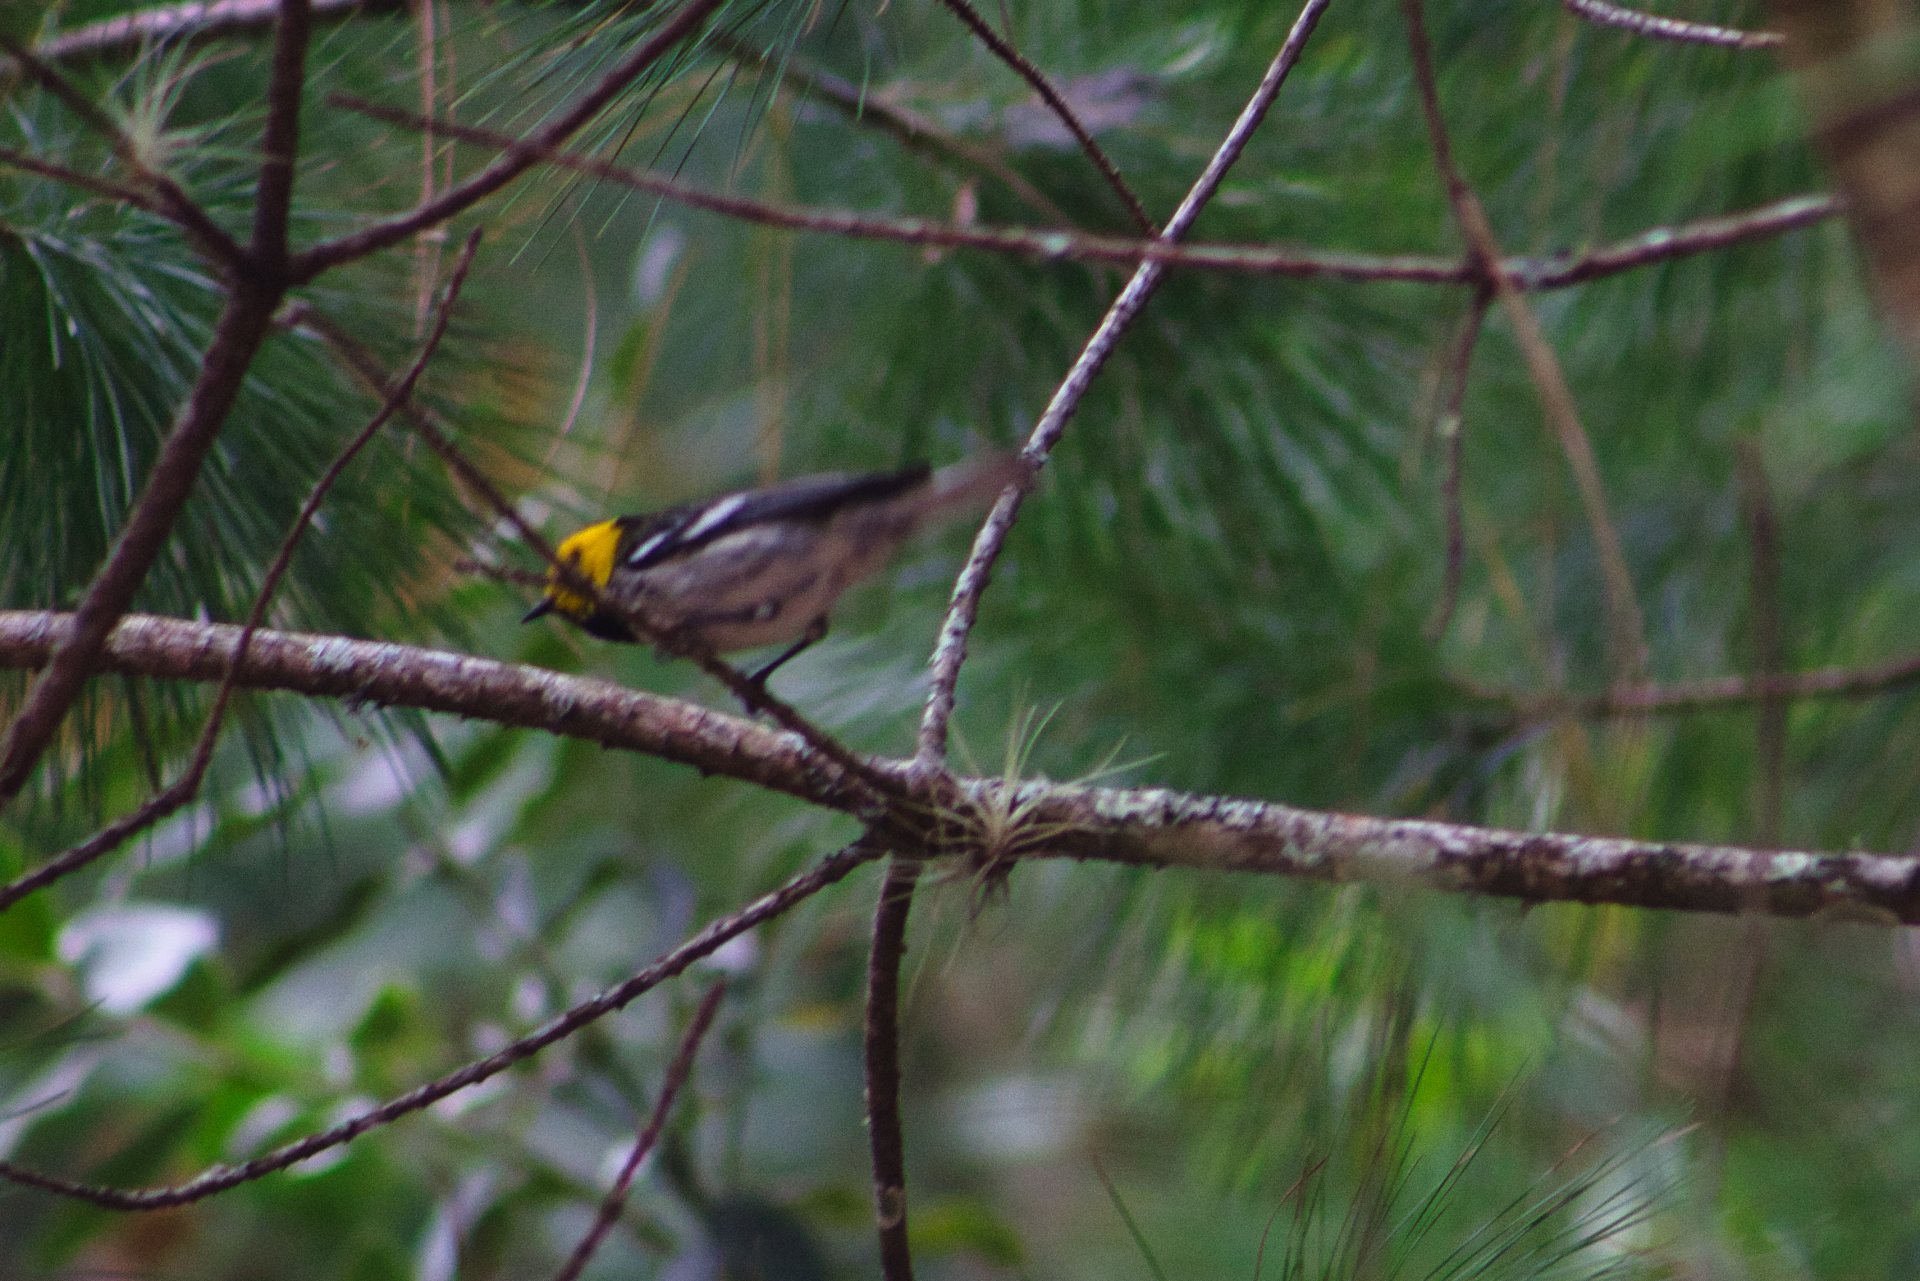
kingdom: Animalia
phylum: Chordata
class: Aves
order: Passeriformes
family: Parulidae
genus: Setophaga
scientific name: Setophaga occidentalis
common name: Hermit warbler
